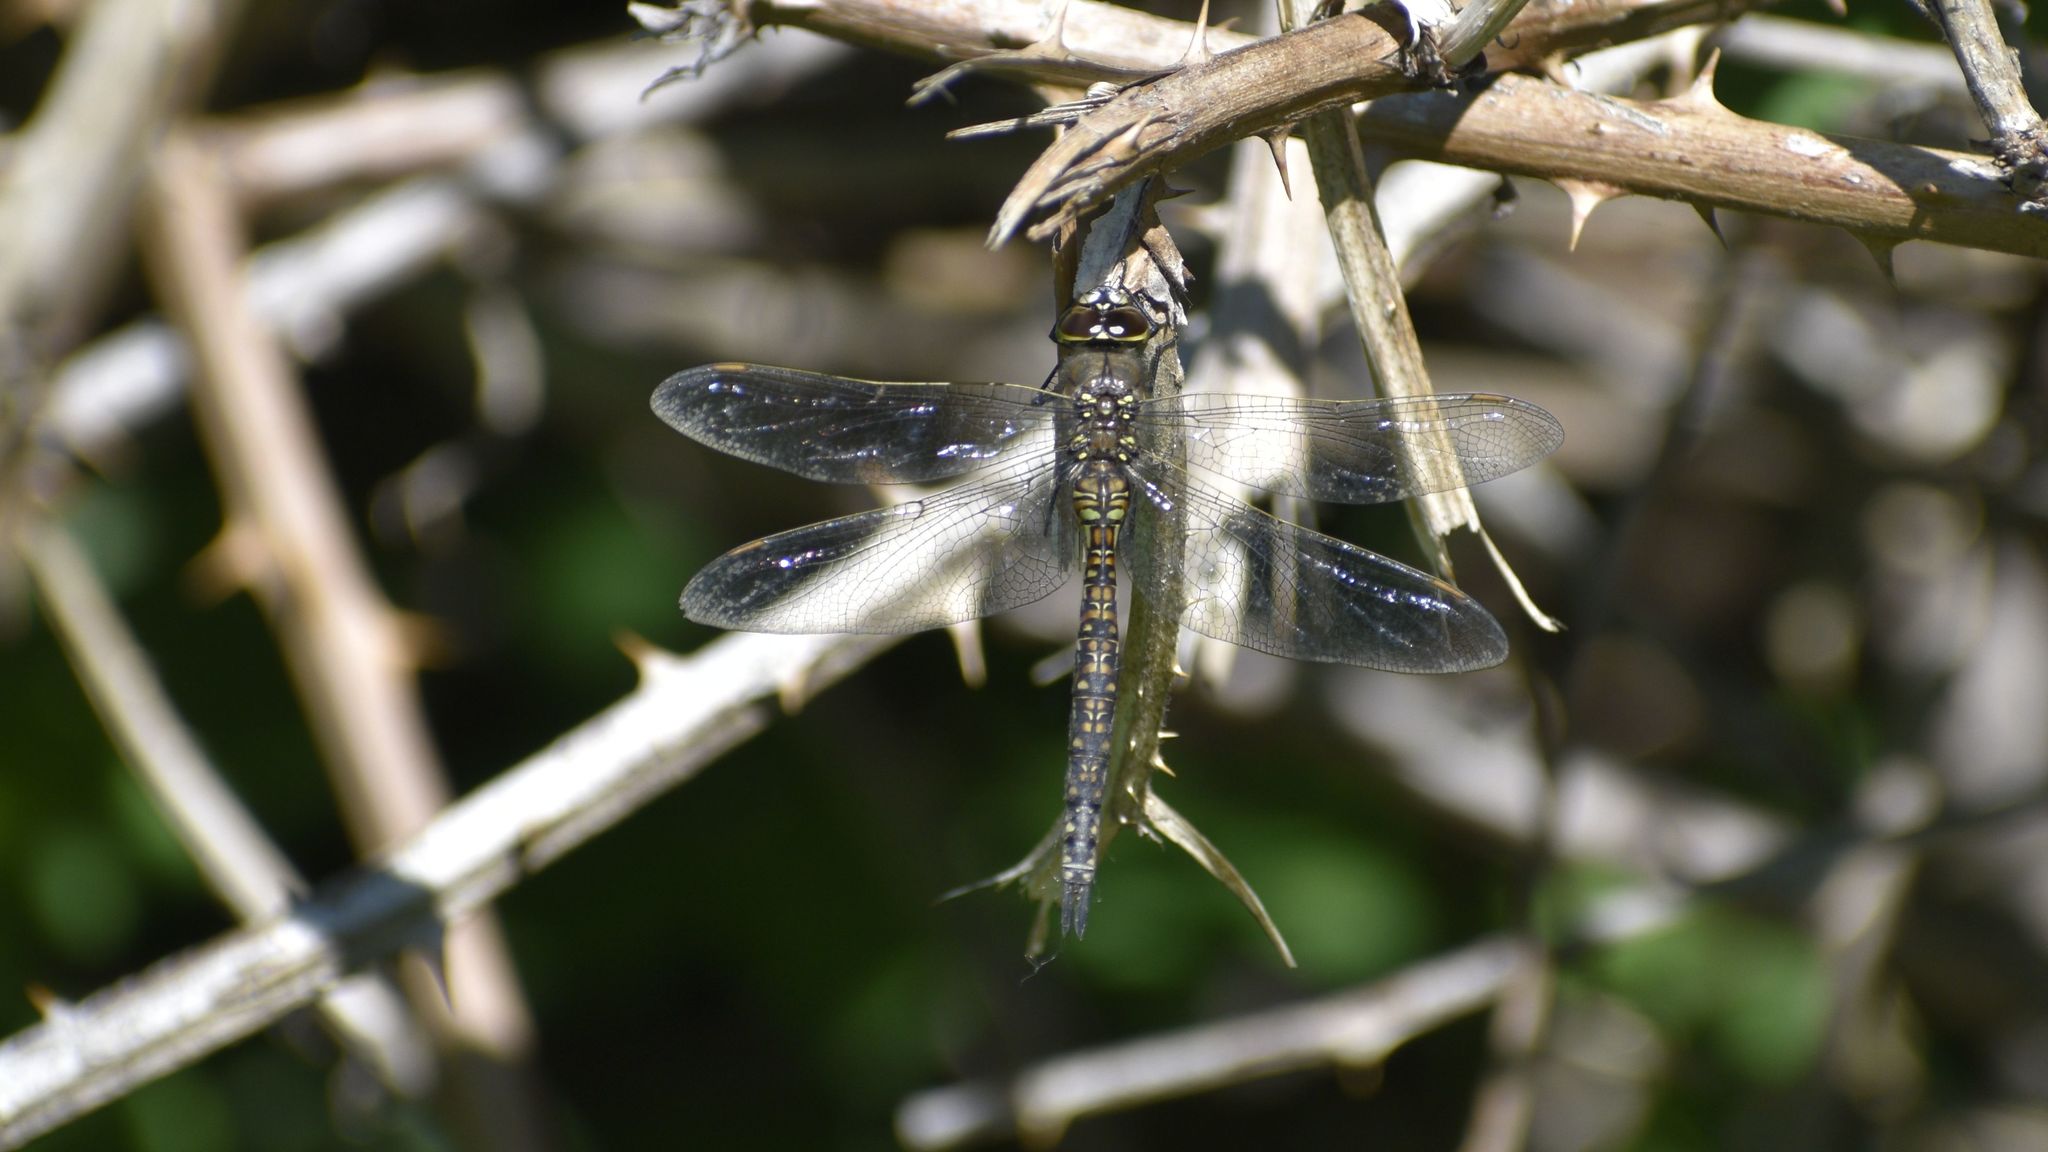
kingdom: Animalia
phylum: Arthropoda
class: Insecta
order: Odonata
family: Aeshnidae
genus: Rhionaeschna
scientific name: Rhionaeschna californica
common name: California darner
